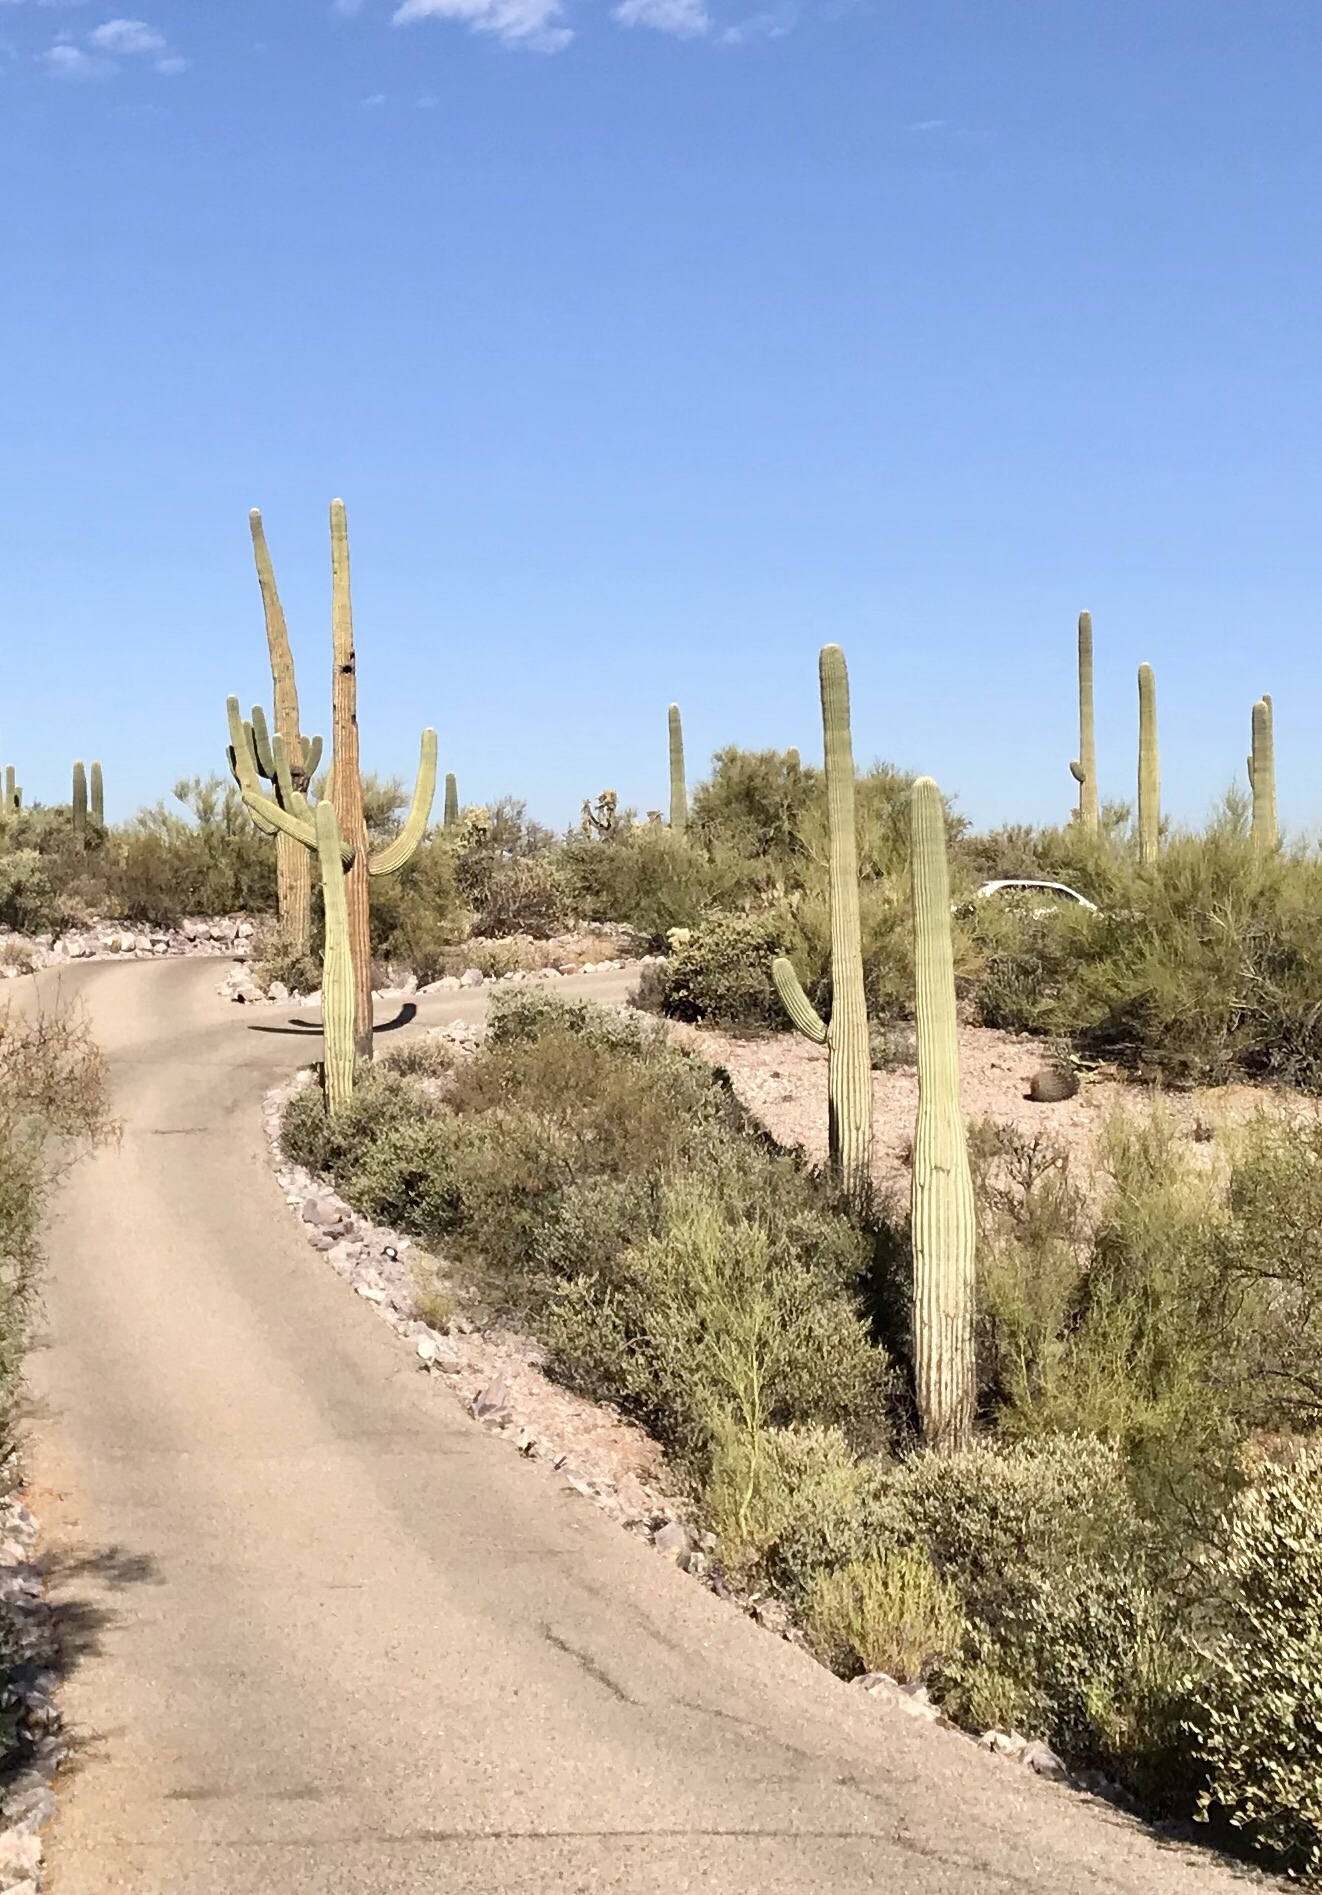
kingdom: Plantae
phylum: Tracheophyta
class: Magnoliopsida
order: Caryophyllales
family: Cactaceae
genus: Carnegiea
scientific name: Carnegiea gigantea
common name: Saguaro
